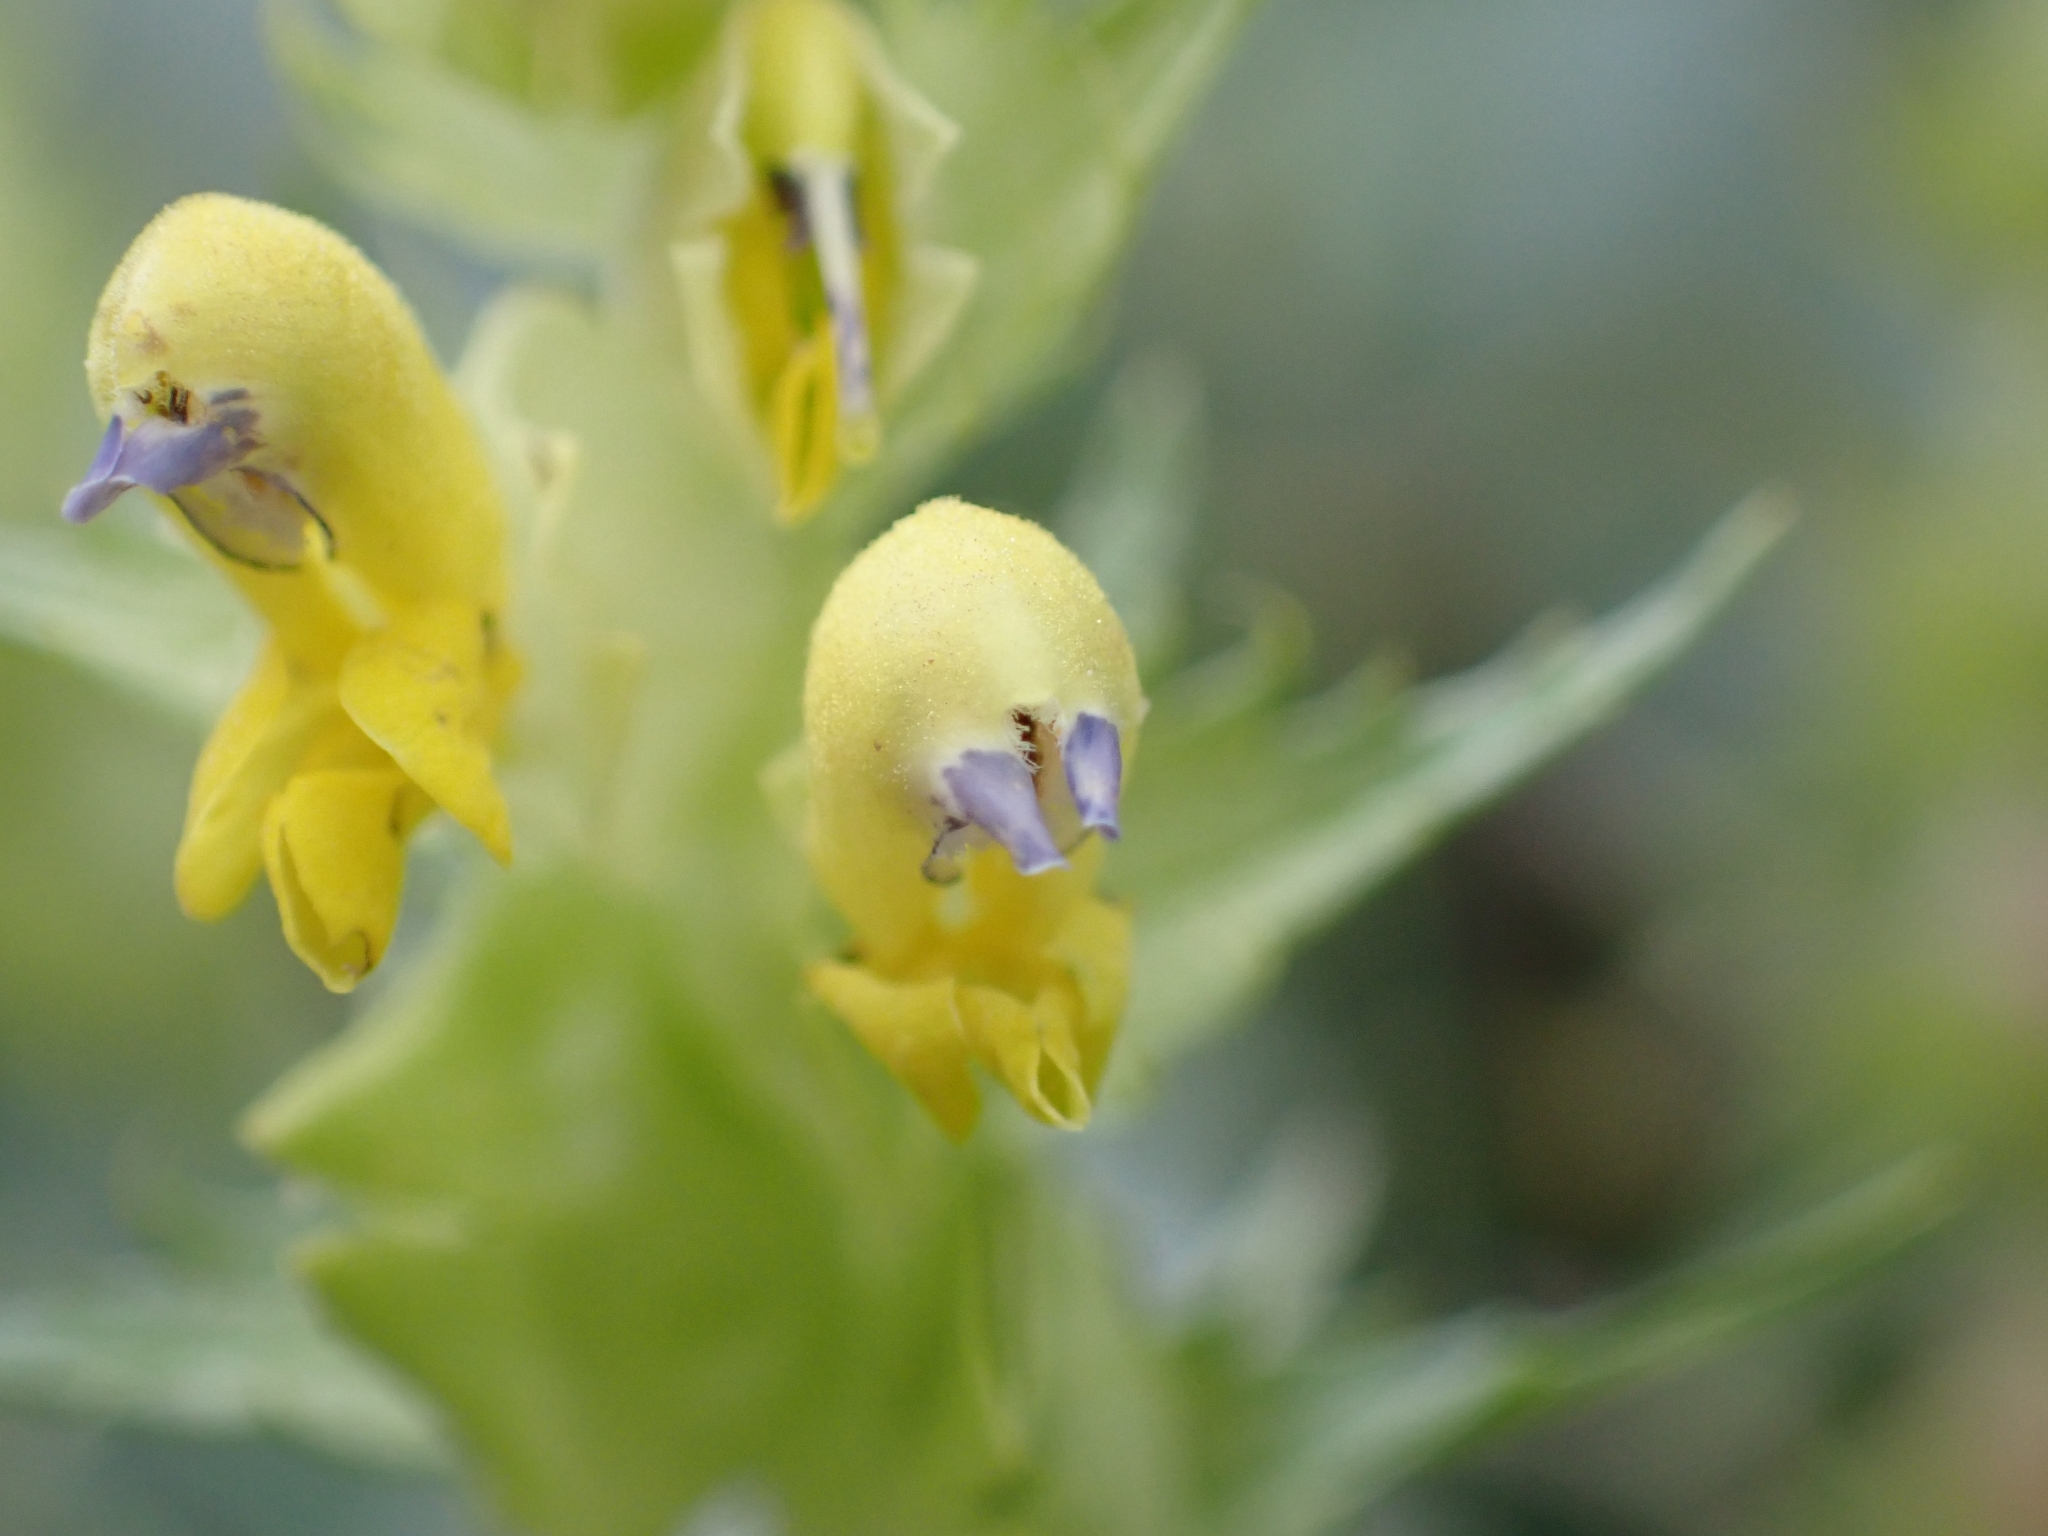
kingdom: Plantae
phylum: Tracheophyta
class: Magnoliopsida
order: Lamiales
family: Orobanchaceae
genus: Rhinanthus
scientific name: Rhinanthus glacialis
